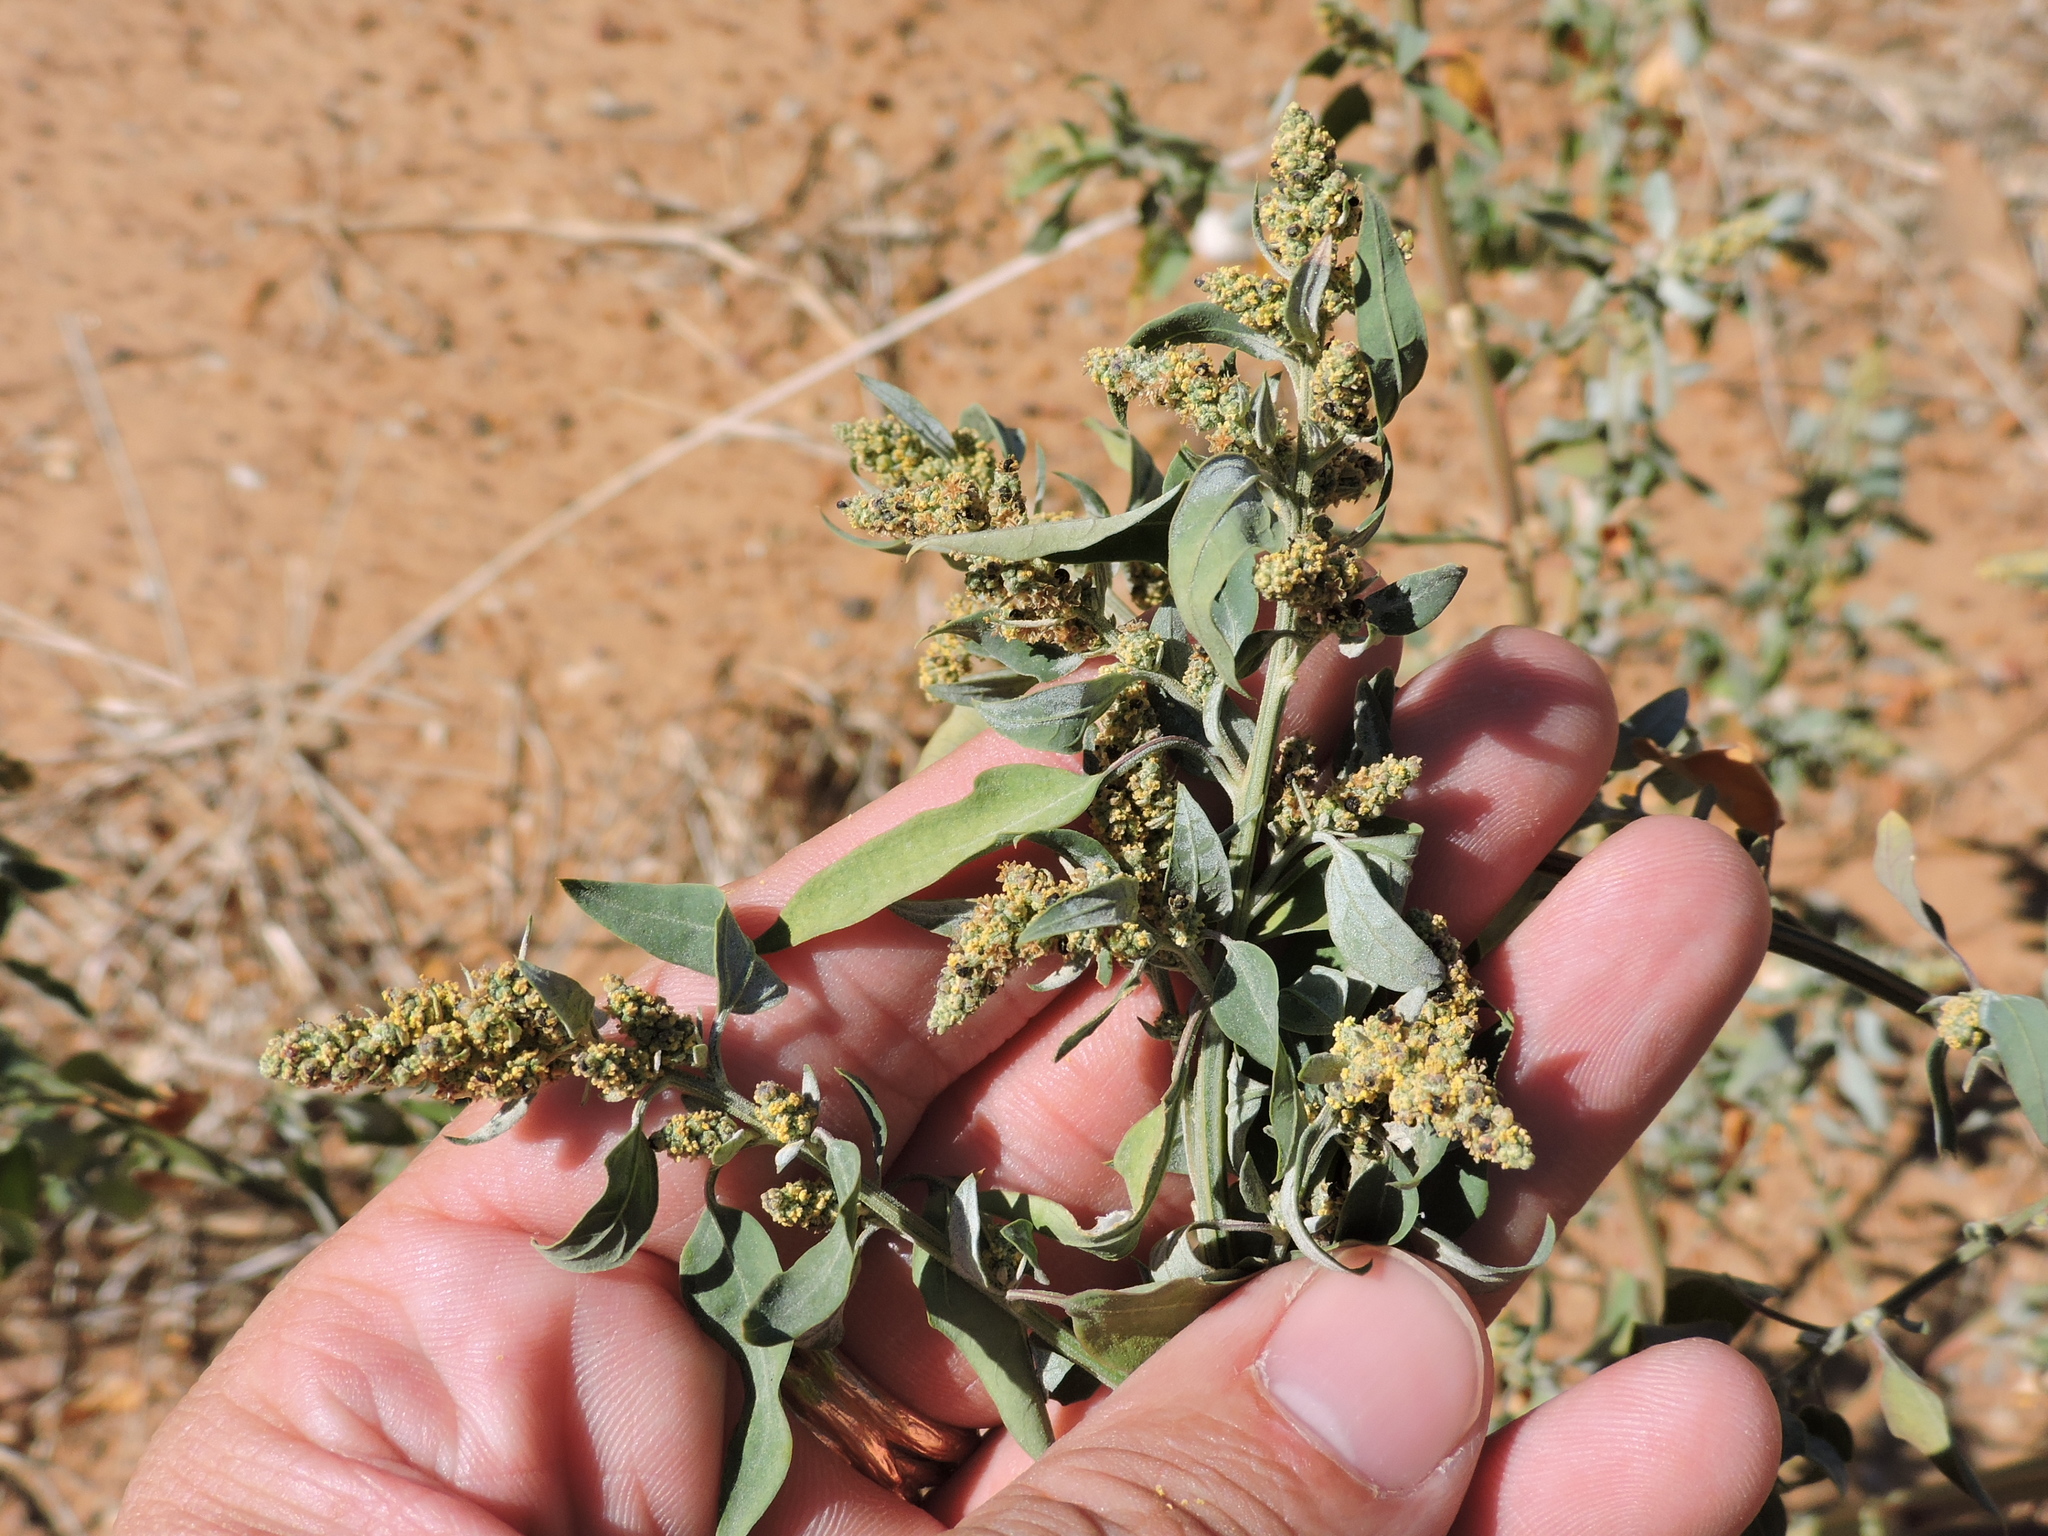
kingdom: Plantae
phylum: Tracheophyta
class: Magnoliopsida
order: Caryophyllales
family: Amaranthaceae
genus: Chenopodium
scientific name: Chenopodium album
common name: Fat-hen
